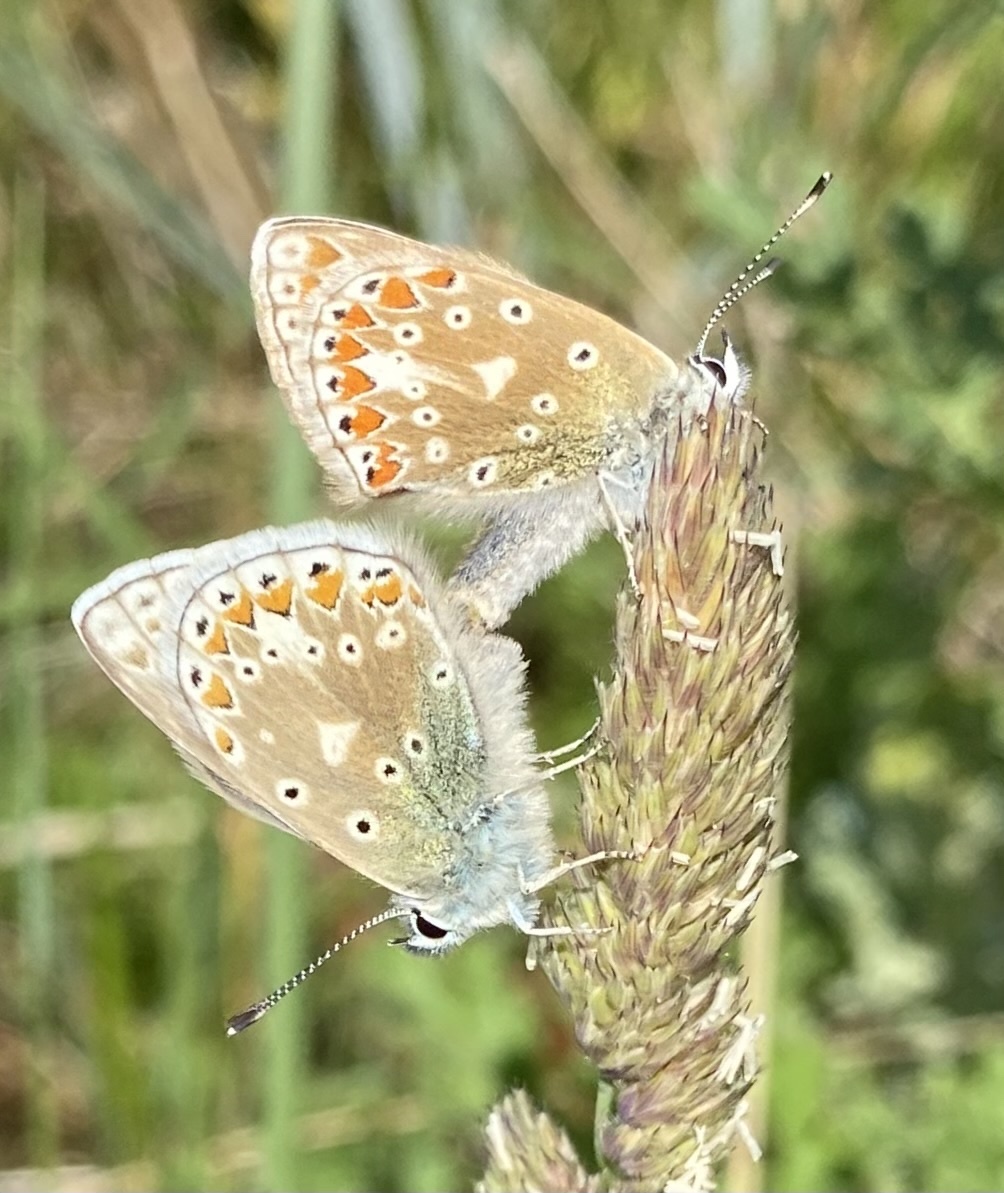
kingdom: Animalia
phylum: Arthropoda
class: Insecta
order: Lepidoptera
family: Lycaenidae
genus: Polyommatus
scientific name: Polyommatus icarus
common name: Common blue
